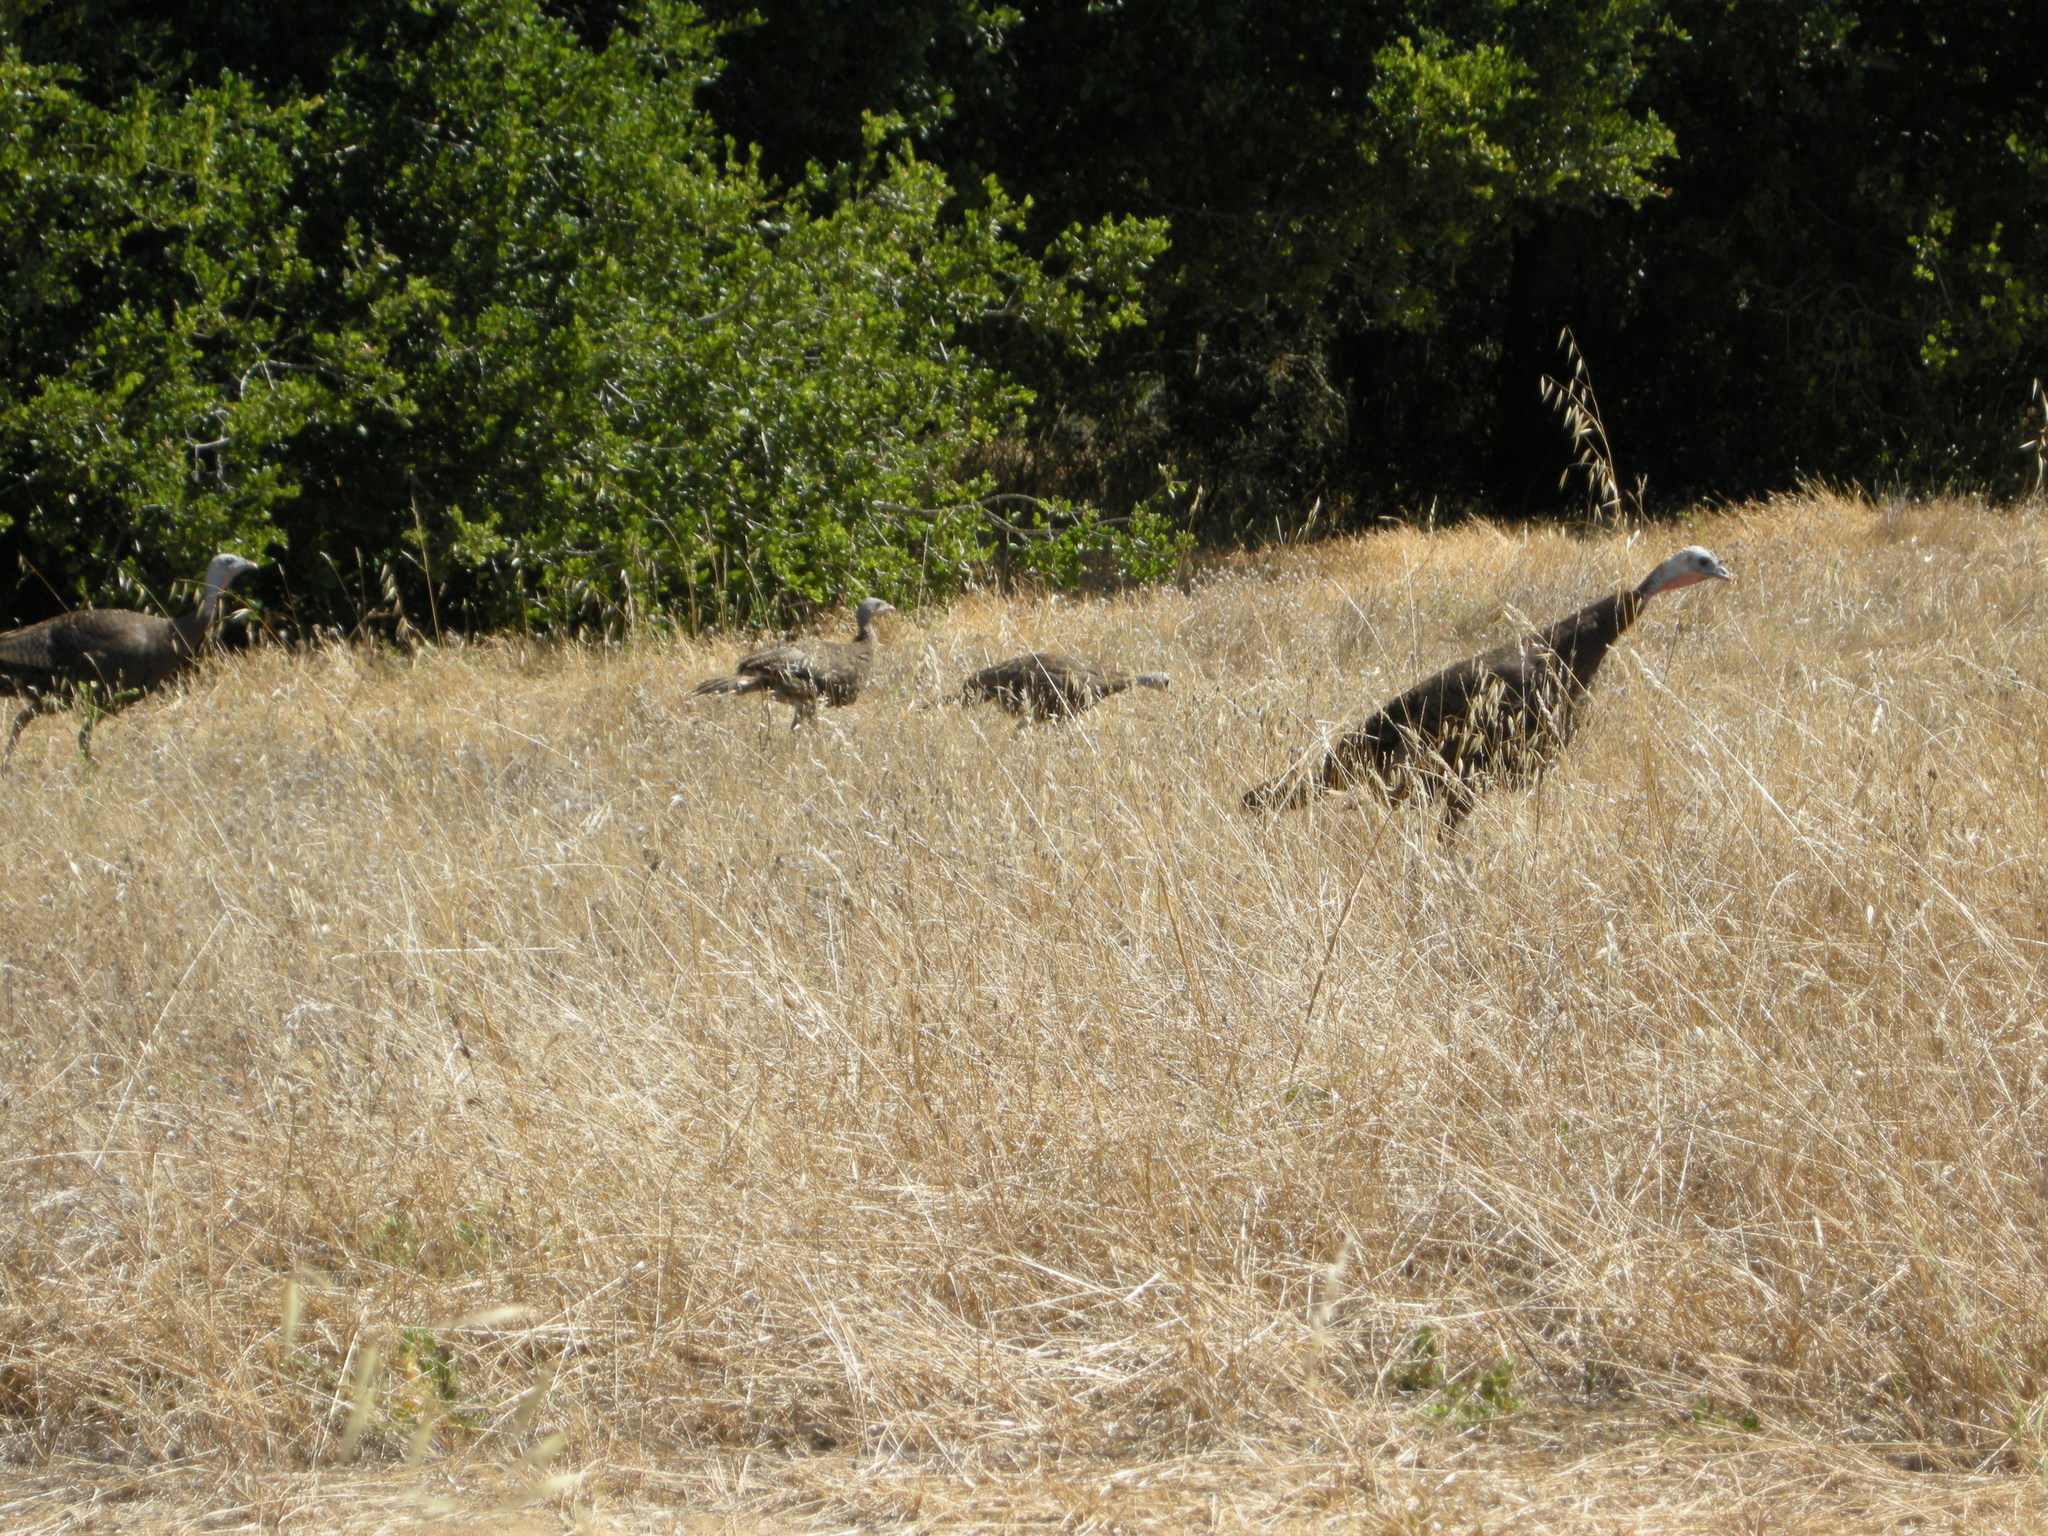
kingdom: Animalia
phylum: Chordata
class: Aves
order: Galliformes
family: Phasianidae
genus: Meleagris
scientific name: Meleagris gallopavo
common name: Wild turkey
